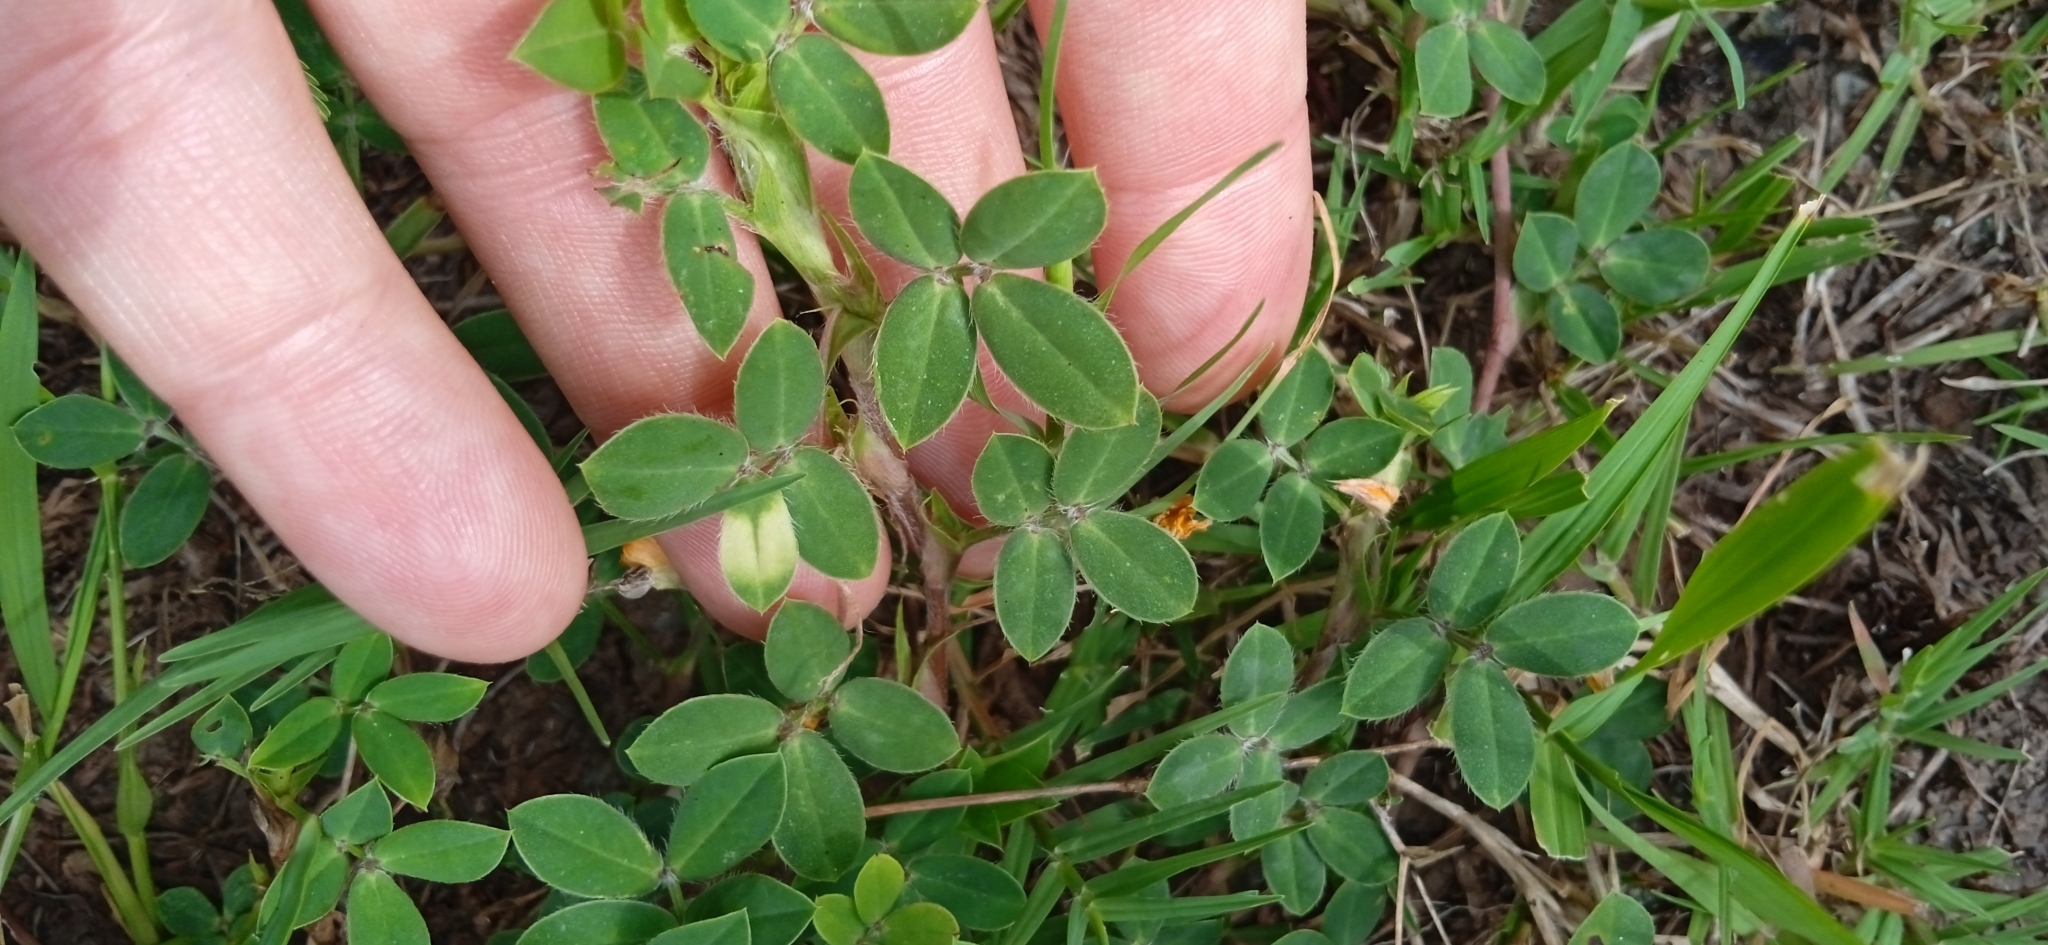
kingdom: Plantae
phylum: Tracheophyta
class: Magnoliopsida
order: Fabales
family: Fabaceae
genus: Arachis
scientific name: Arachis villosa
